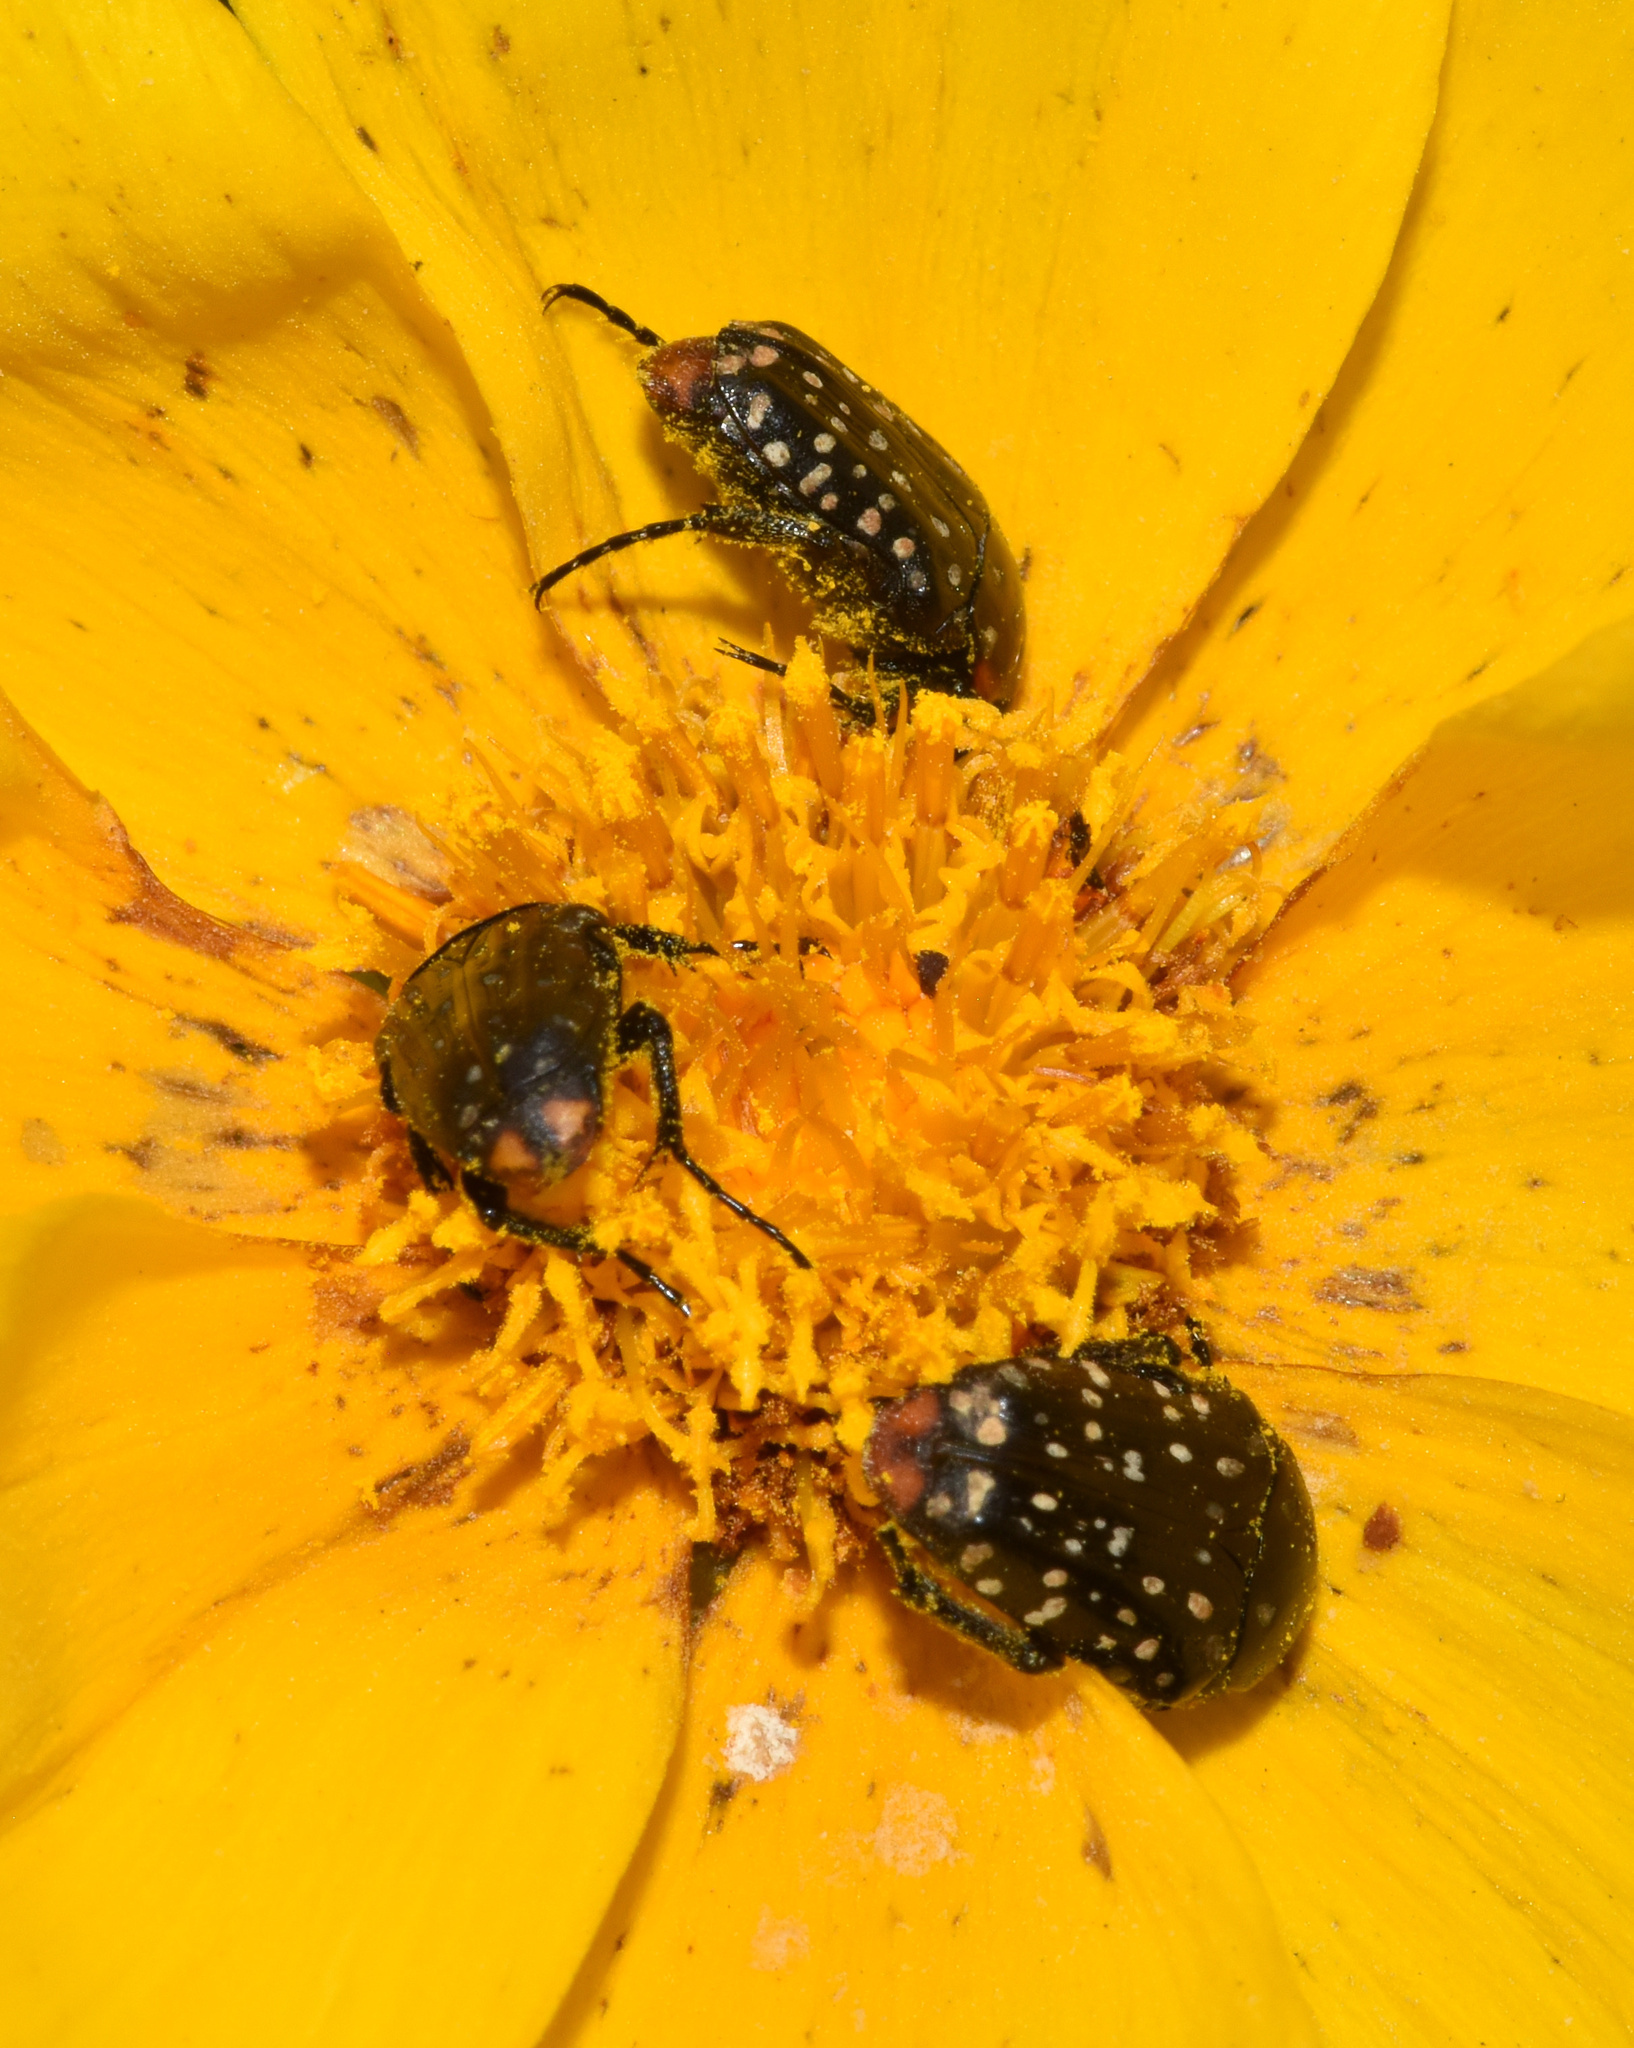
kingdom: Animalia
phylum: Arthropoda
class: Insecta
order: Coleoptera
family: Scarabaeidae
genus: Oxythyrea
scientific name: Oxythyrea
